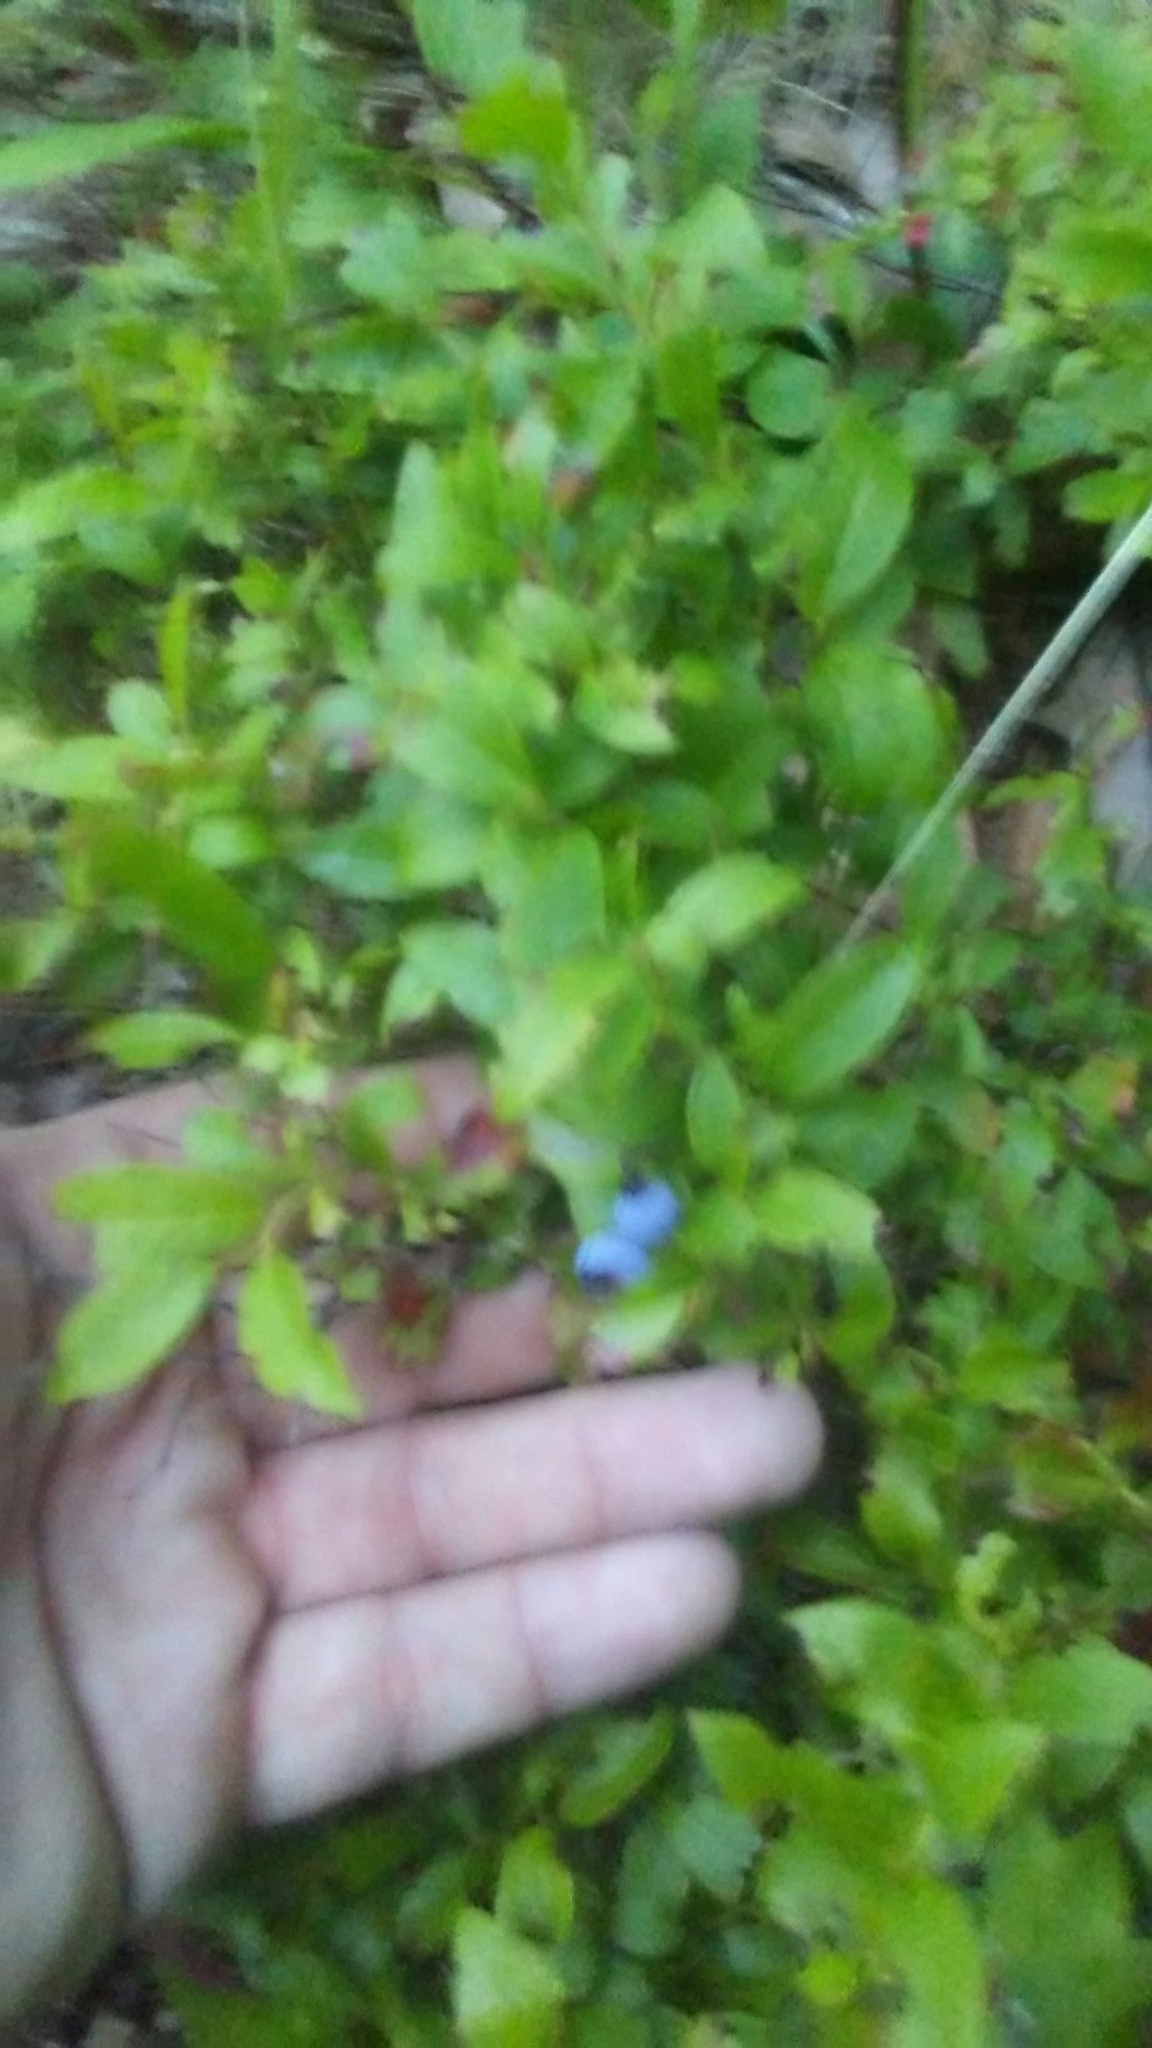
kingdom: Plantae
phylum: Tracheophyta
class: Magnoliopsida
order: Ericales
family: Ericaceae
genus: Vaccinium
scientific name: Vaccinium
